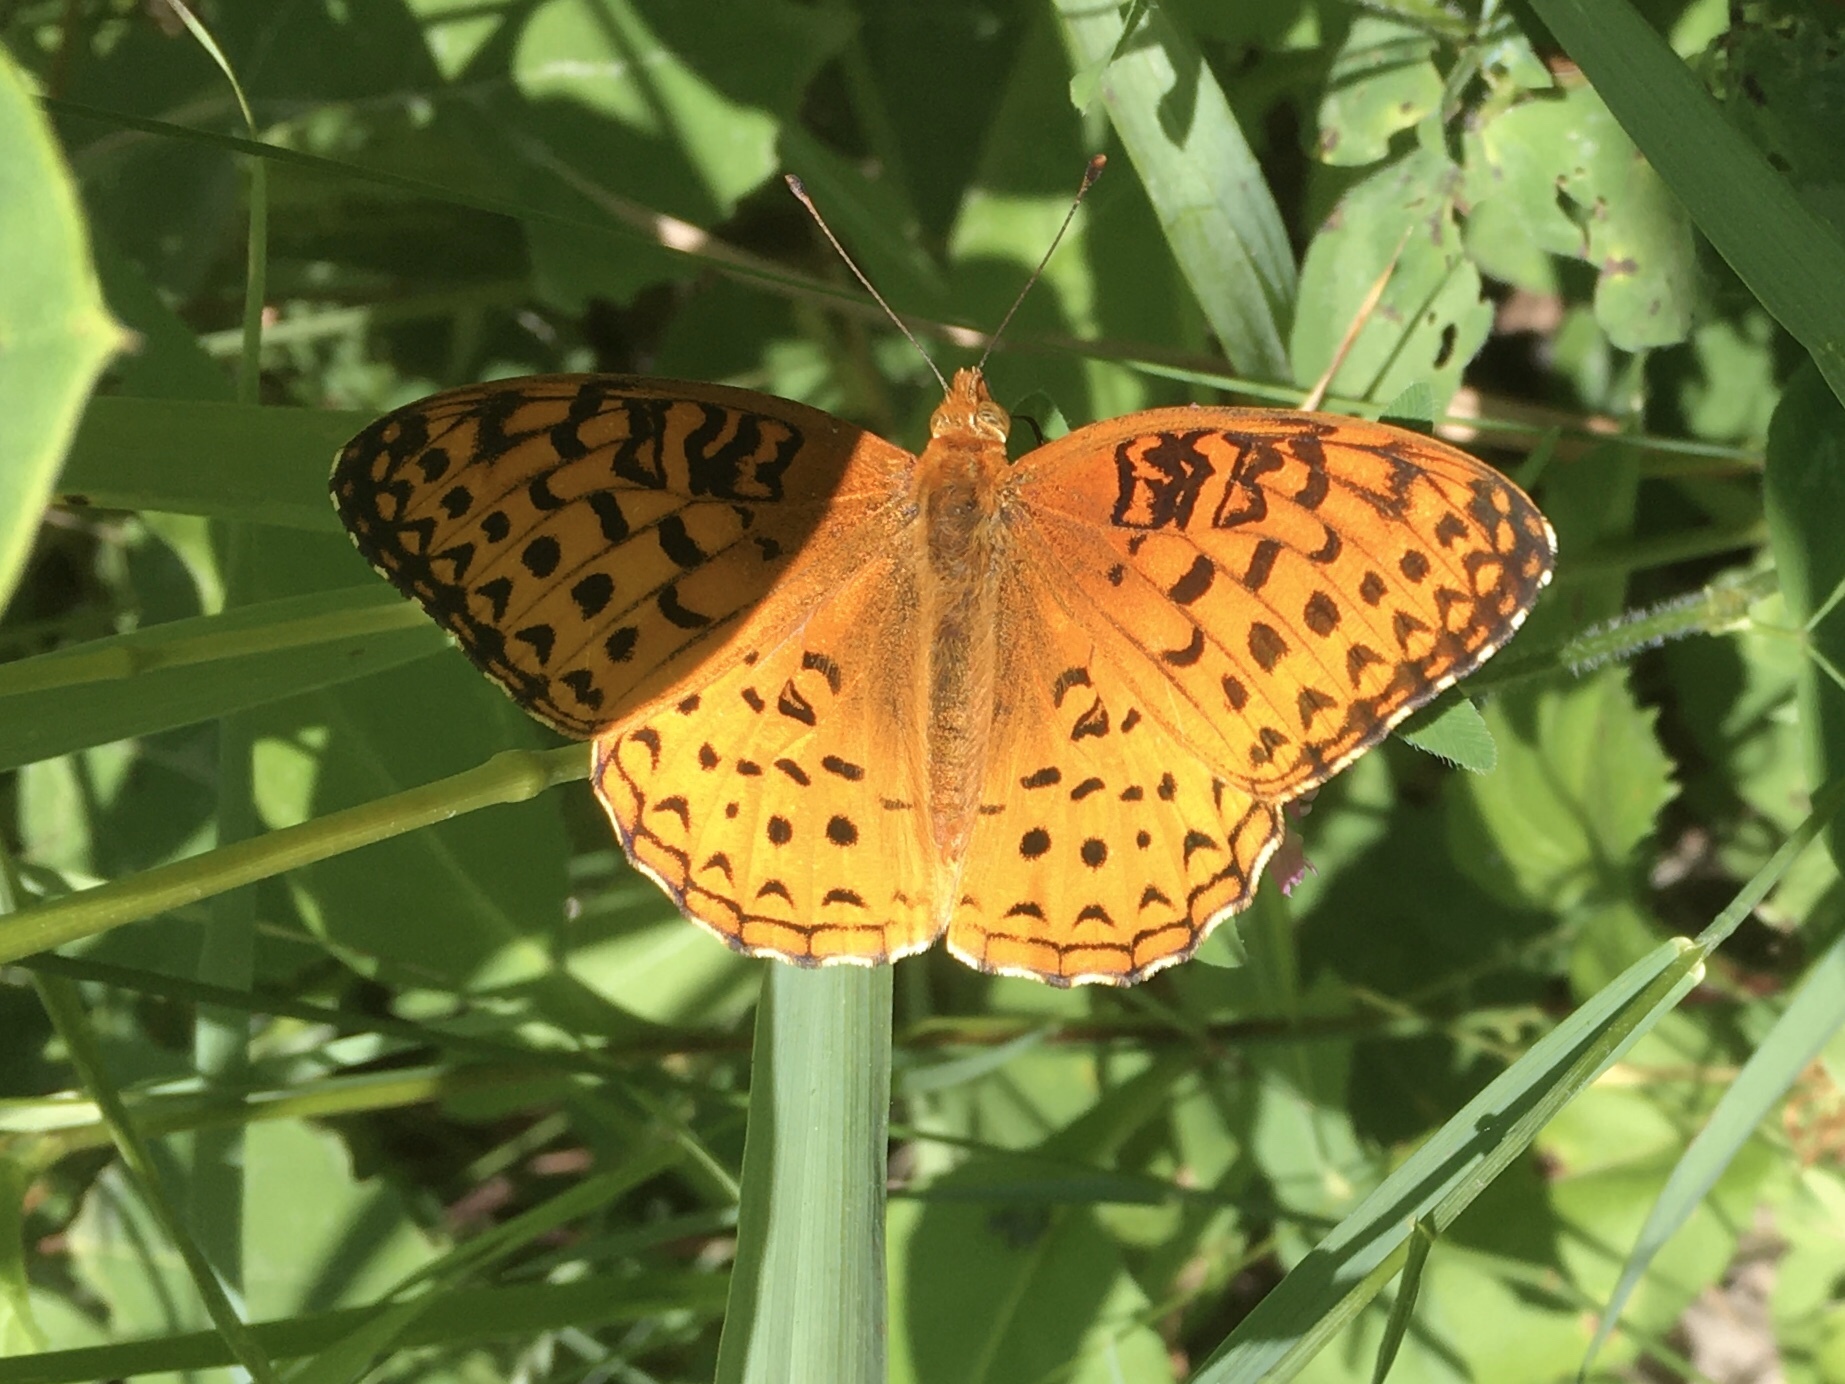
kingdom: Animalia
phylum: Arthropoda
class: Insecta
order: Lepidoptera
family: Nymphalidae
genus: Speyeria
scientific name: Speyeria aphrodite
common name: Aphrodite friitllary
